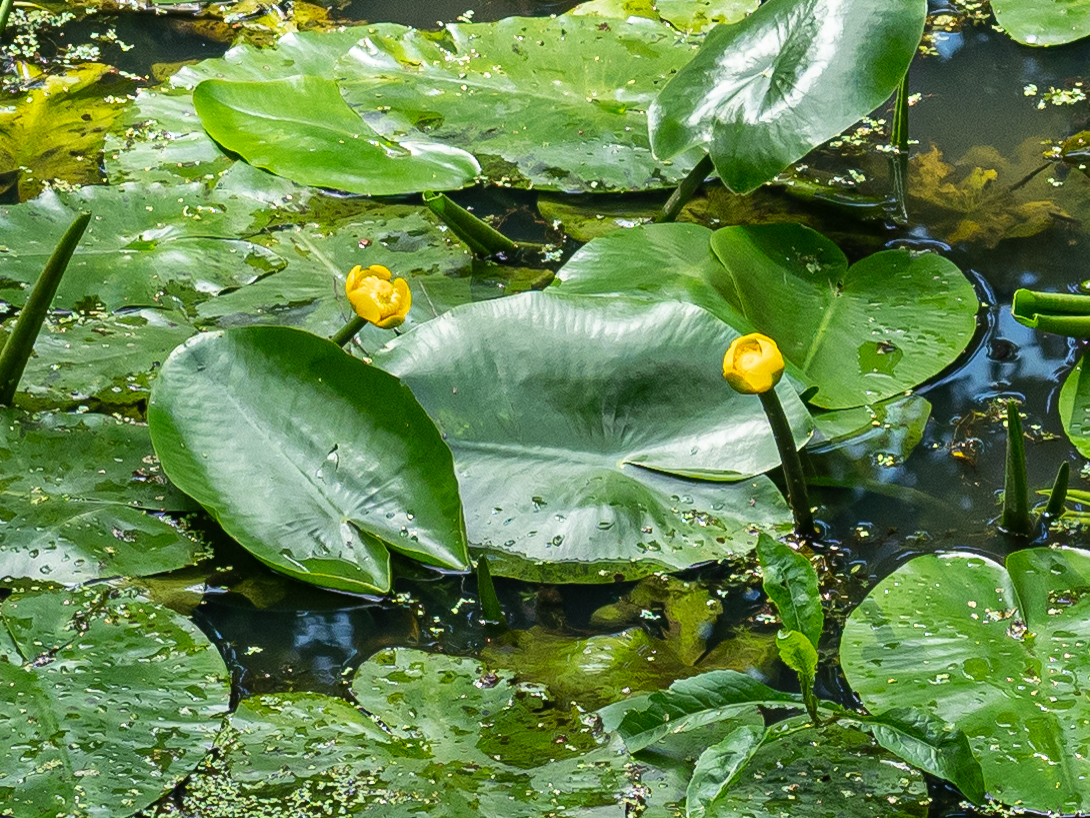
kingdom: Plantae
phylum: Tracheophyta
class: Magnoliopsida
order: Nymphaeales
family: Nymphaeaceae
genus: Nuphar
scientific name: Nuphar lutea
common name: Yellow water-lily
